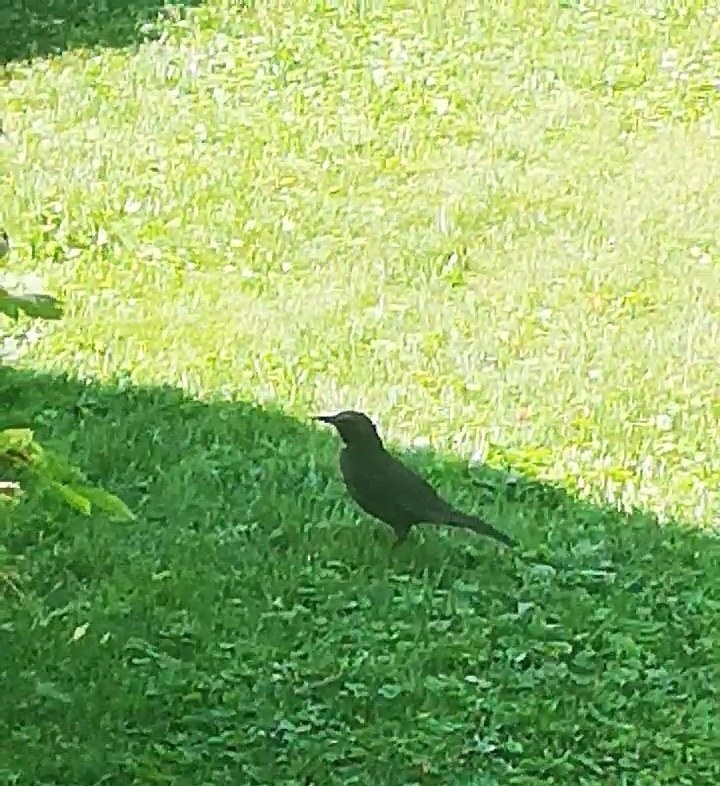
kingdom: Animalia
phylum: Chordata
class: Aves
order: Passeriformes
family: Turdidae
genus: Turdus
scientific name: Turdus merula
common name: Common blackbird
